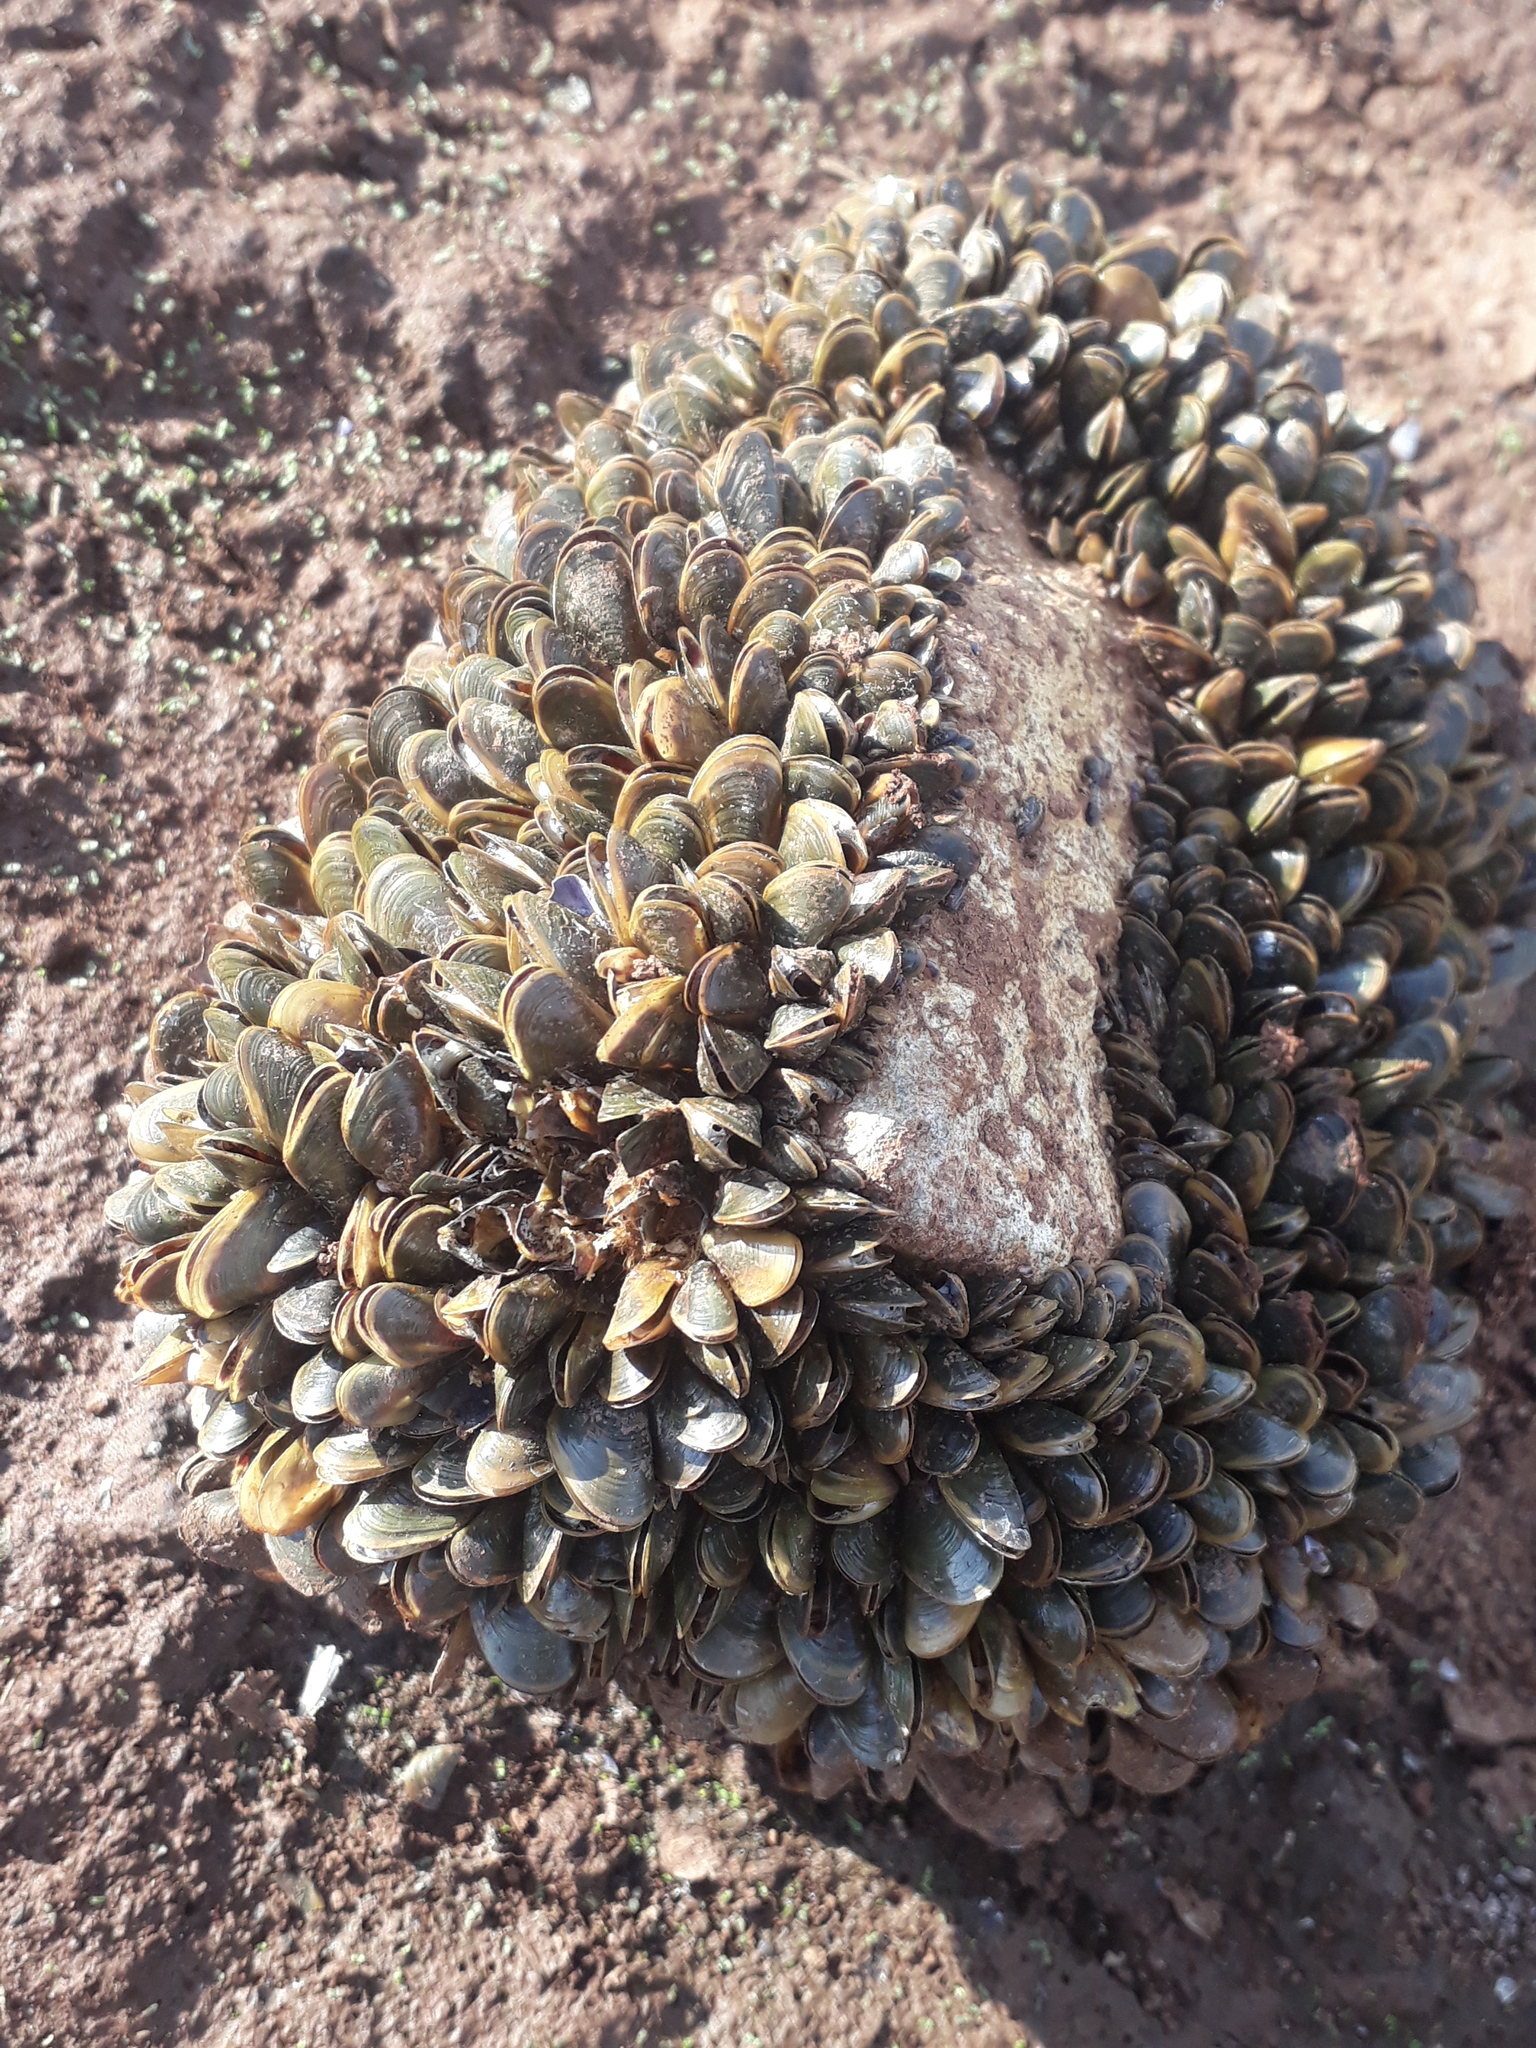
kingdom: Animalia
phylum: Mollusca
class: Bivalvia
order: Mytilida
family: Mytilidae
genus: Limnoperna
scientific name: Limnoperna fortunei
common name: Golden mussel
